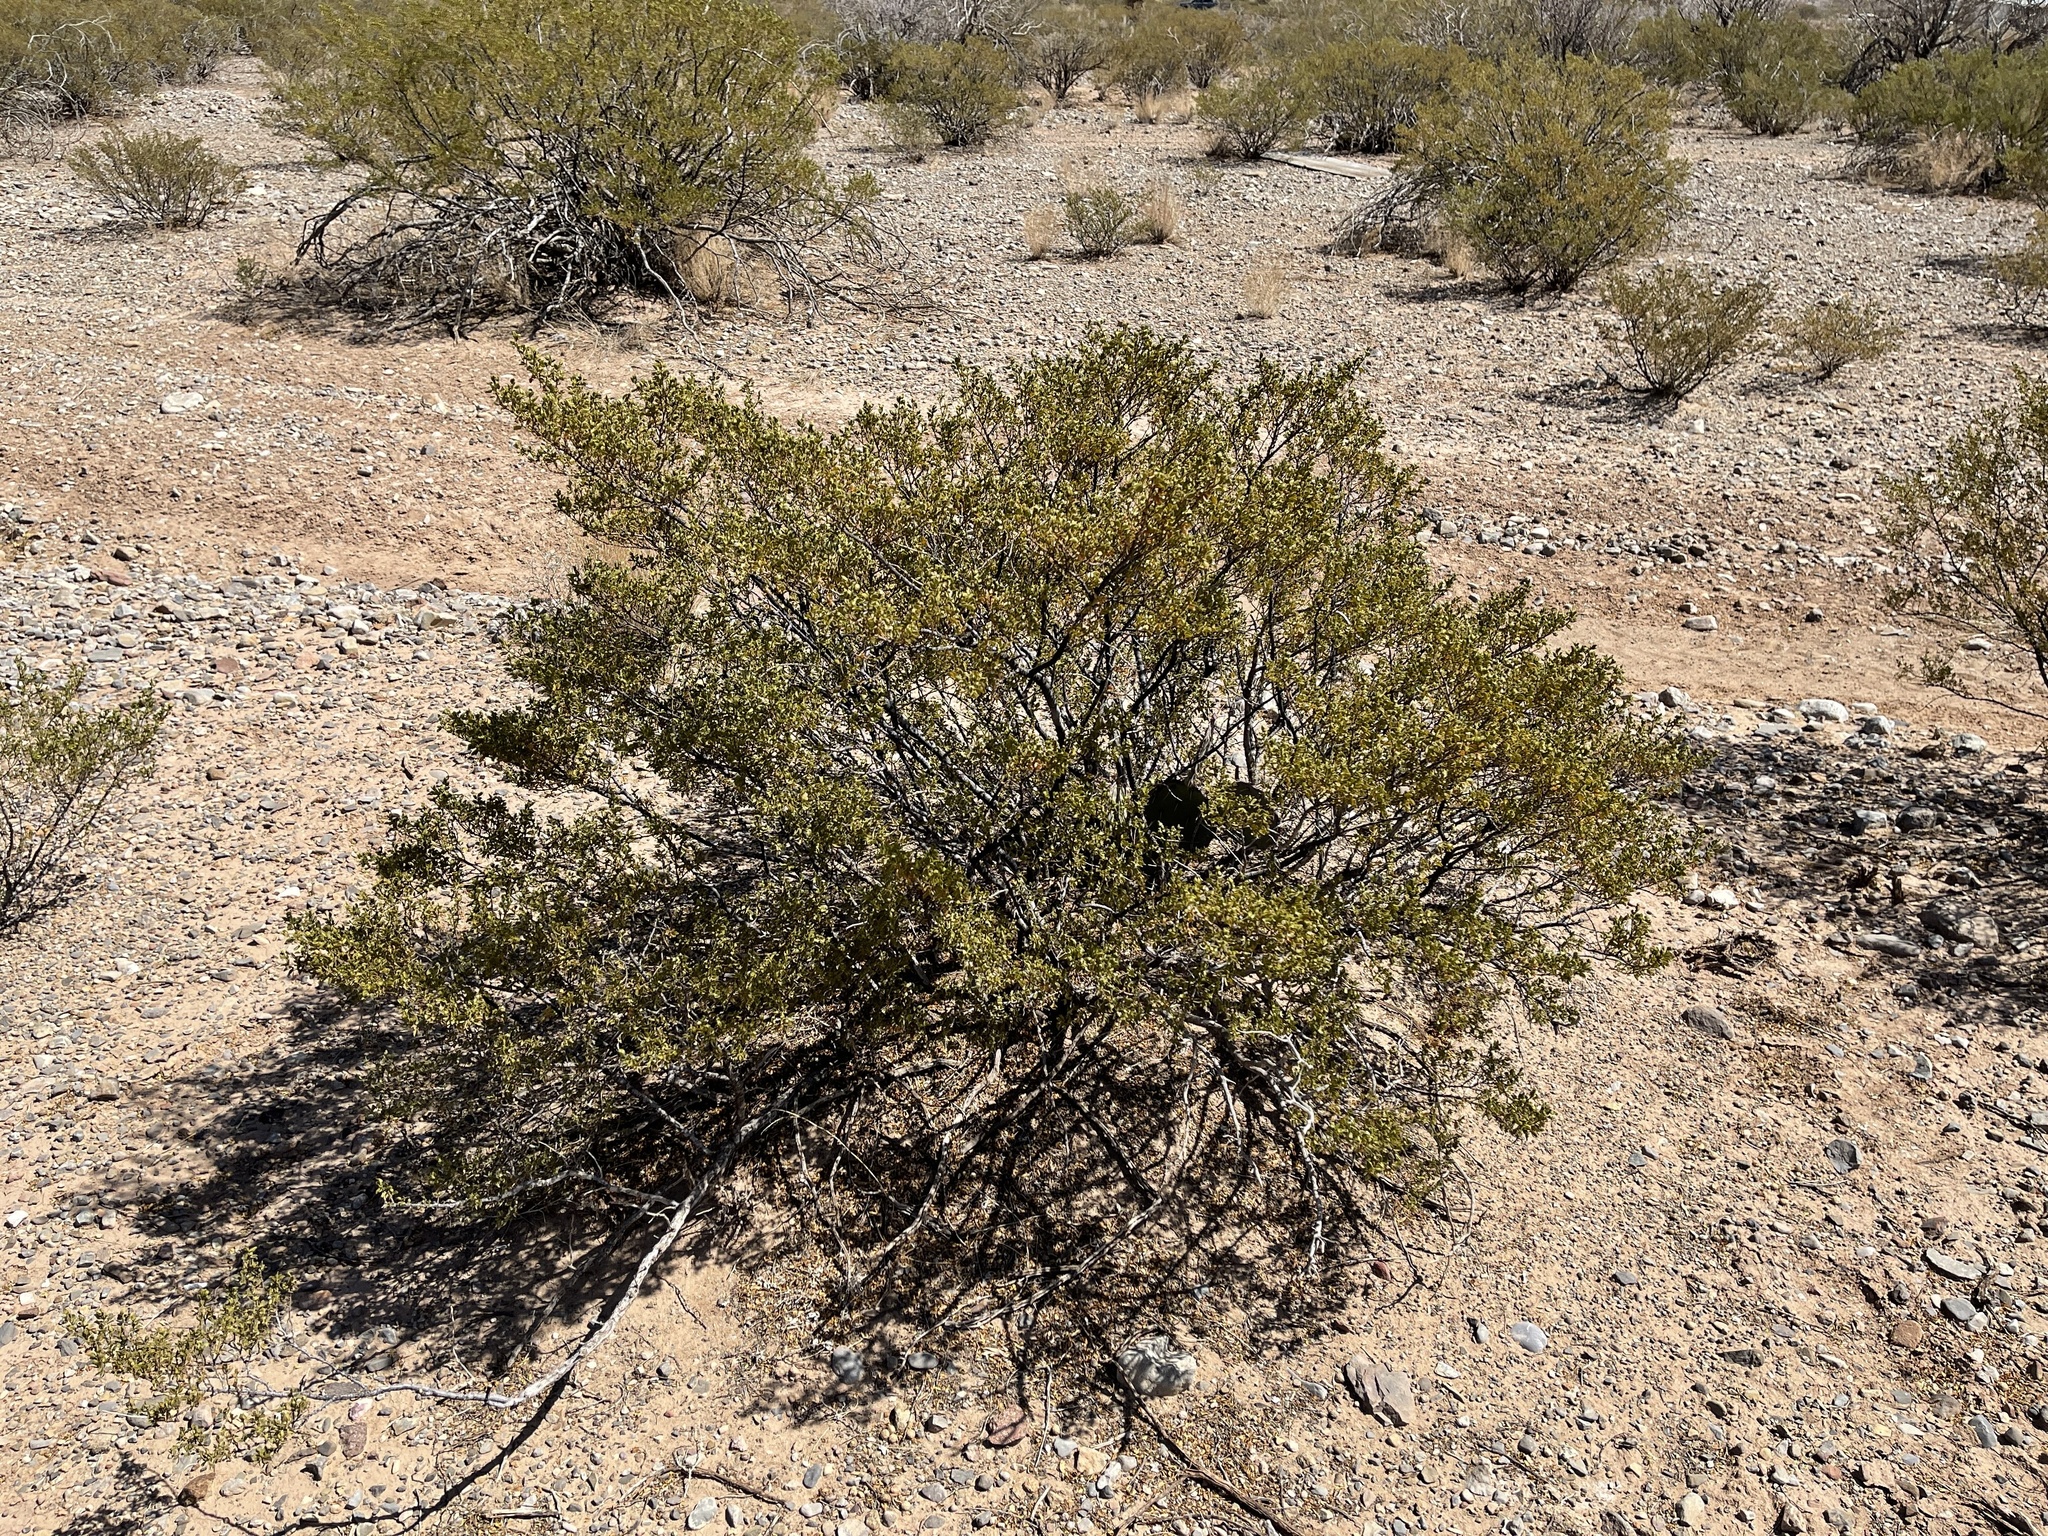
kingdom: Plantae
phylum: Tracheophyta
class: Magnoliopsida
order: Zygophyllales
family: Zygophyllaceae
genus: Larrea
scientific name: Larrea tridentata
